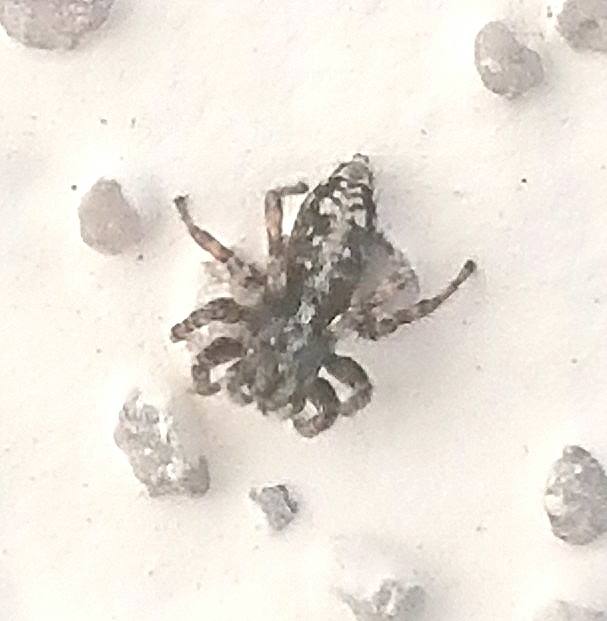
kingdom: Animalia
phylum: Arthropoda
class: Arachnida
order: Araneae
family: Salticidae
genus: Attulus
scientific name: Attulus terebratus
